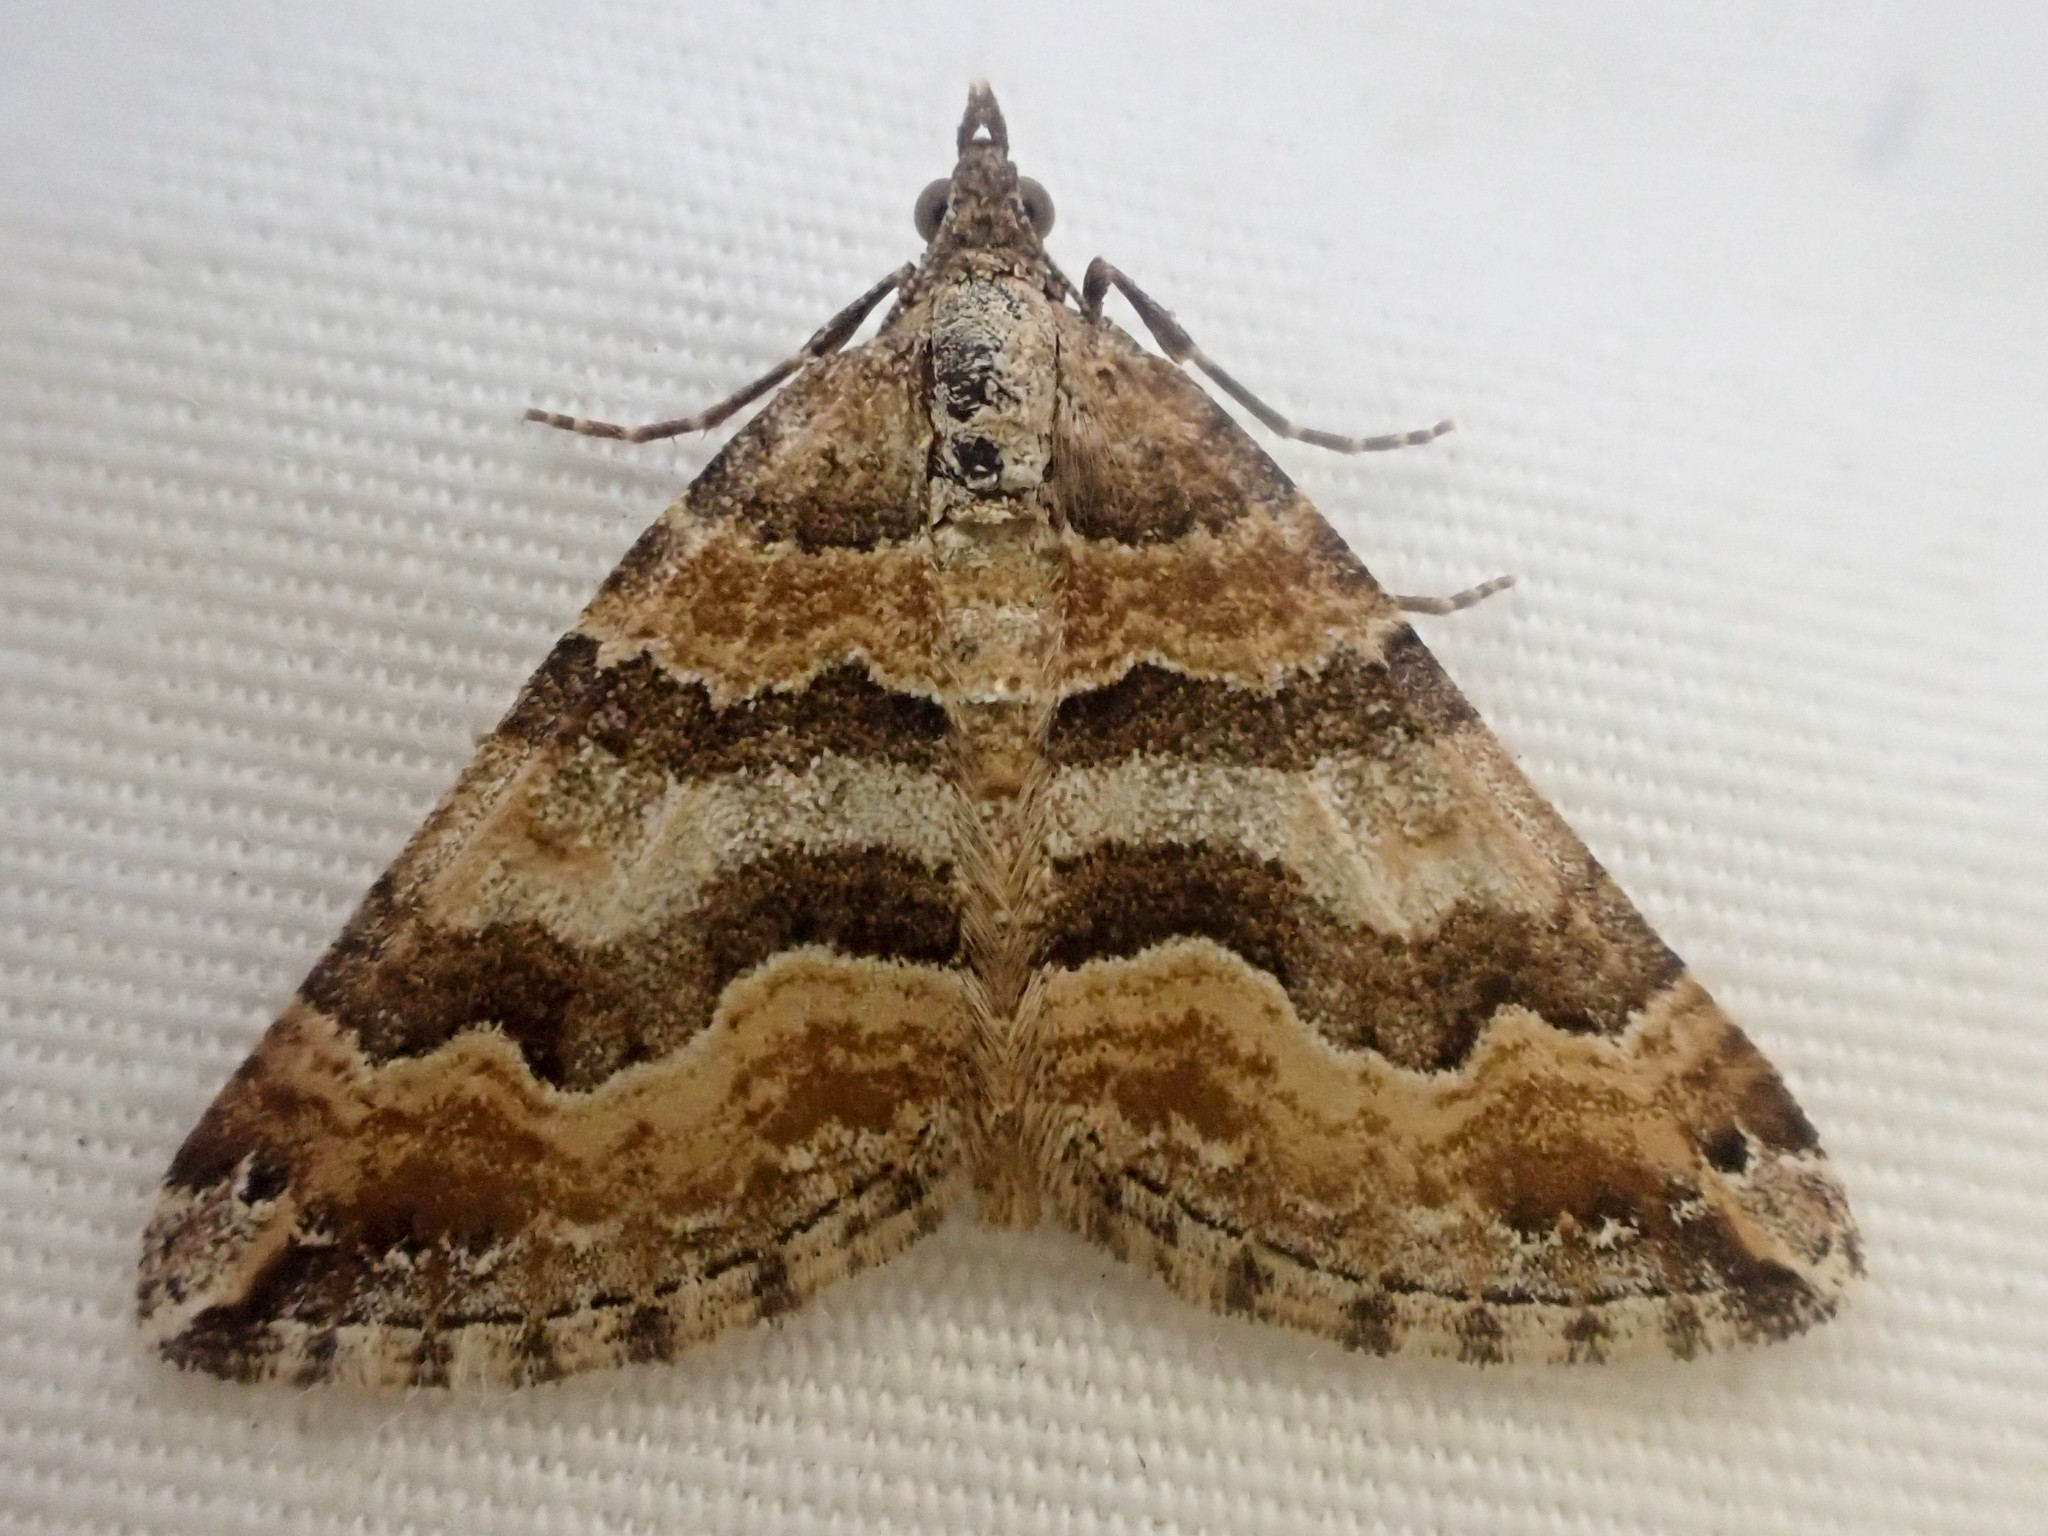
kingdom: Animalia
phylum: Arthropoda
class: Insecta
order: Lepidoptera
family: Geometridae
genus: Perizoma
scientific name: Perizoma epictata
